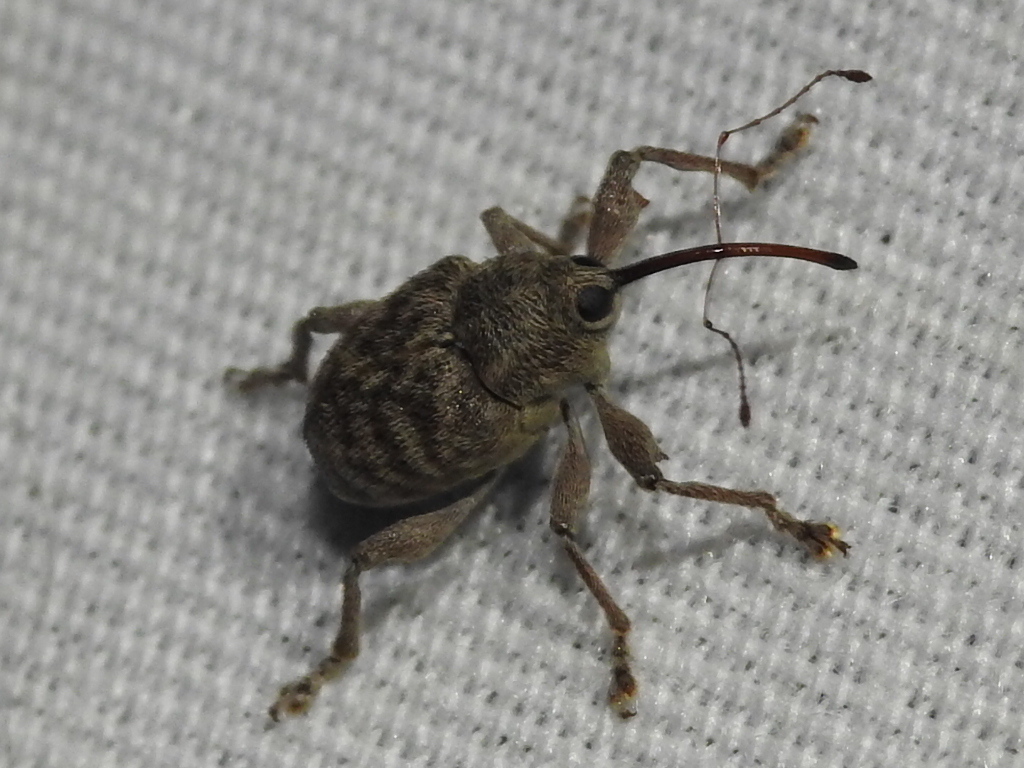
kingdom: Animalia
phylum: Arthropoda
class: Insecta
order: Coleoptera
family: Curculionidae
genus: Curculio
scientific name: Curculio
